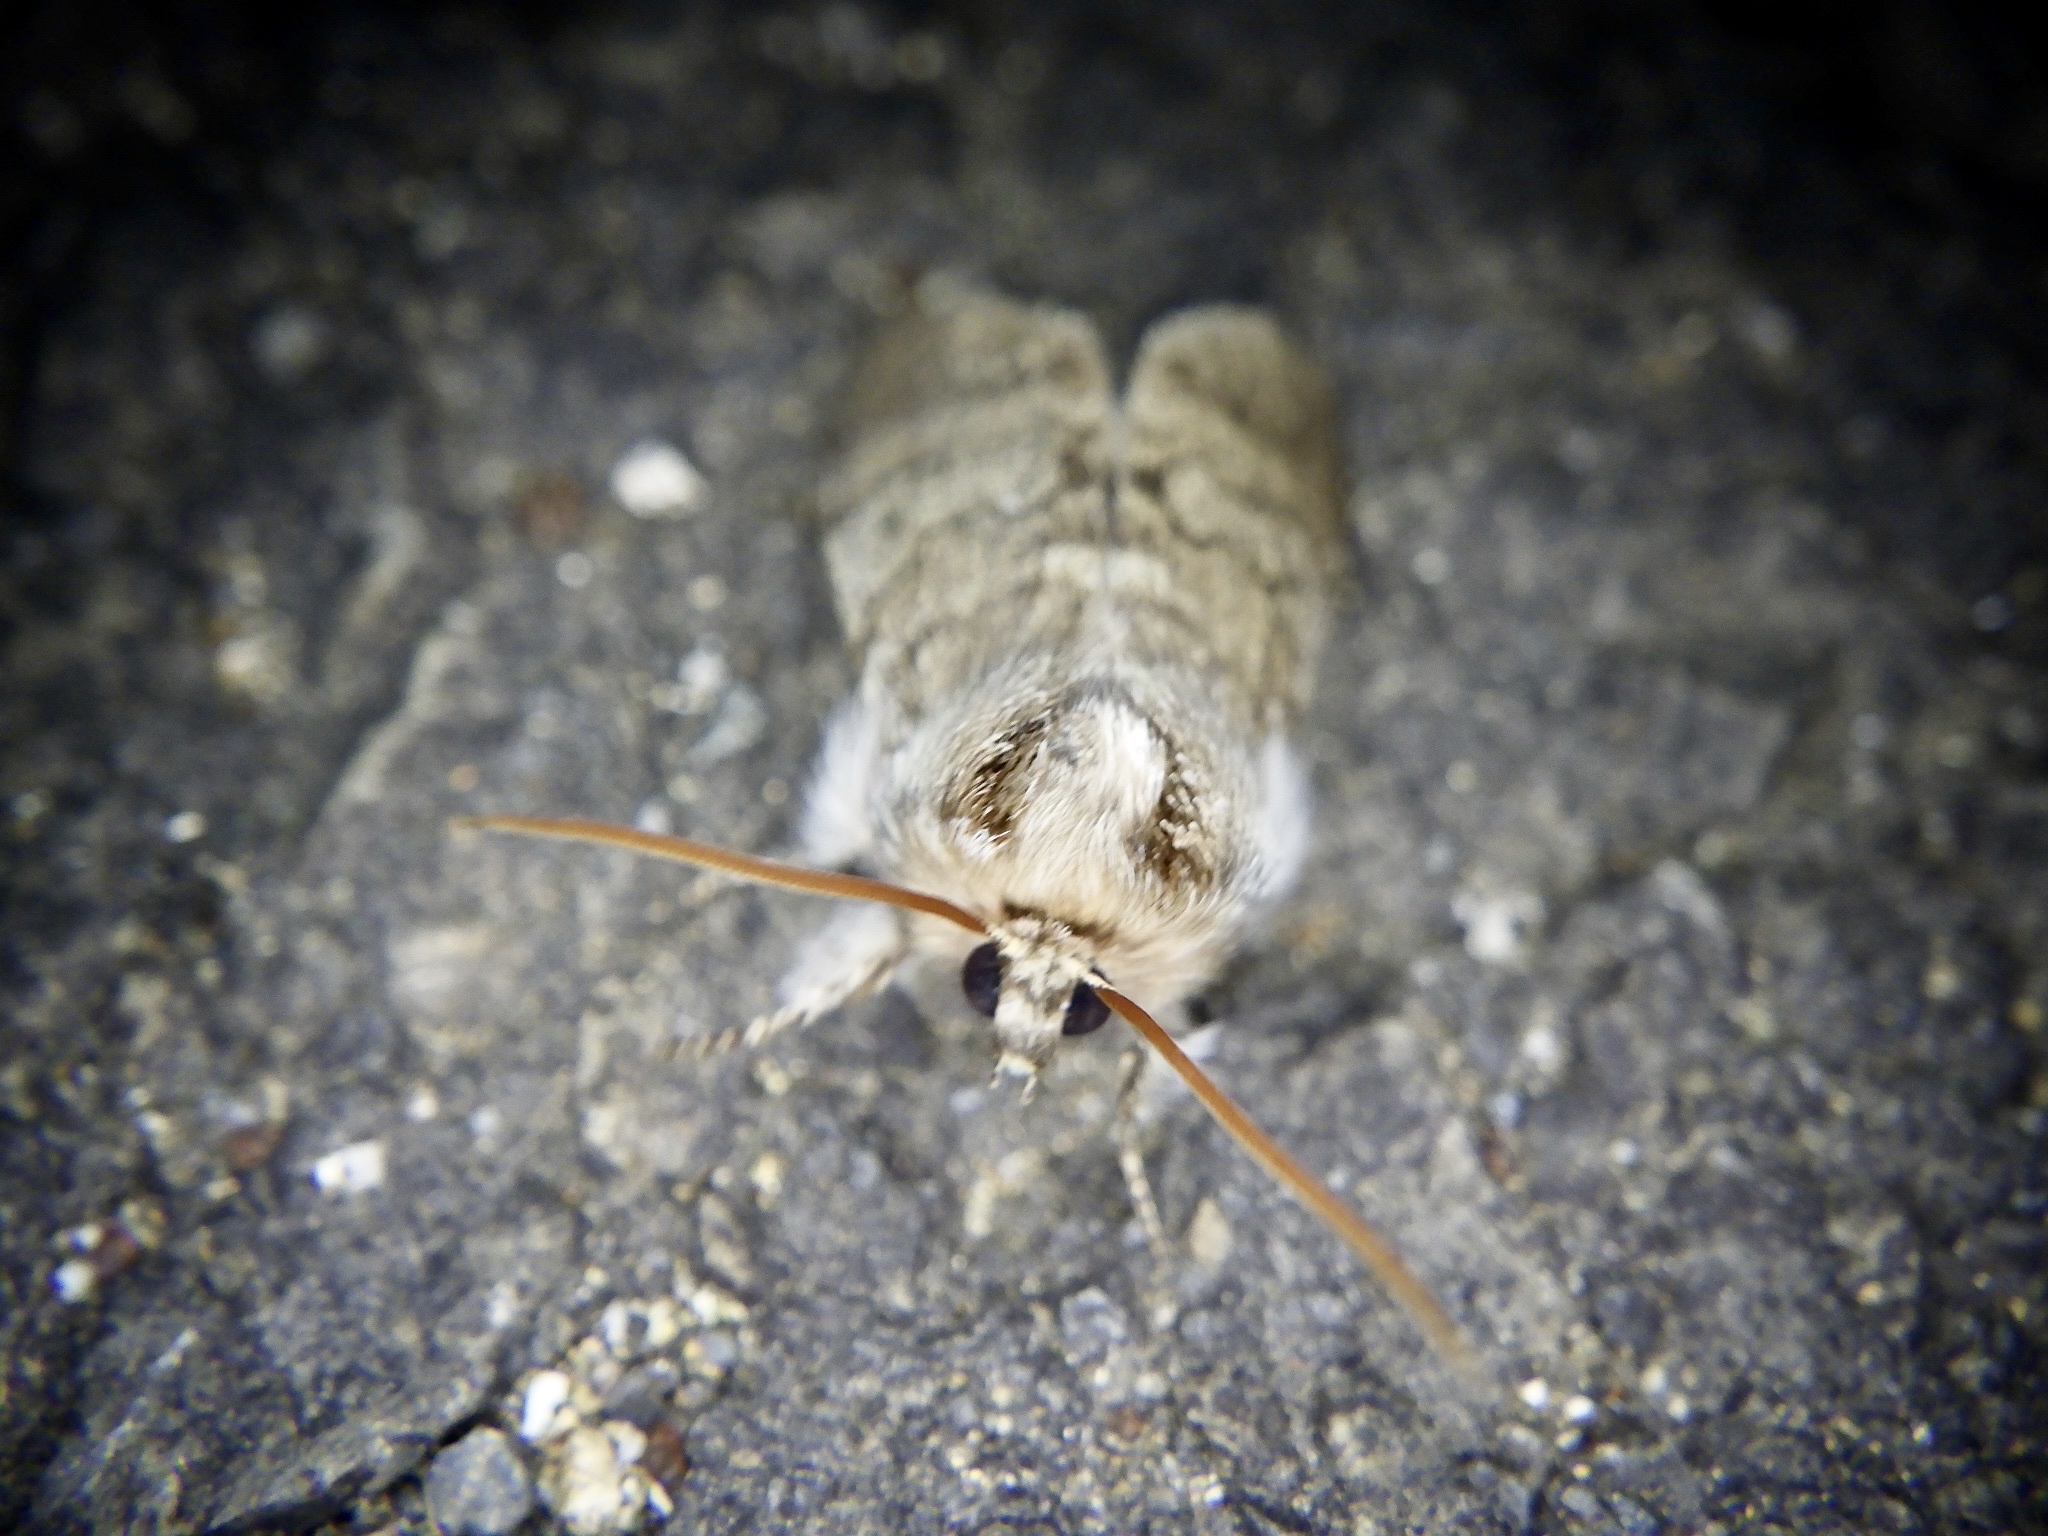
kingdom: Animalia
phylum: Arthropoda
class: Insecta
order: Lepidoptera
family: Drepanidae
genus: Achlya
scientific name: Achlya kuramana
